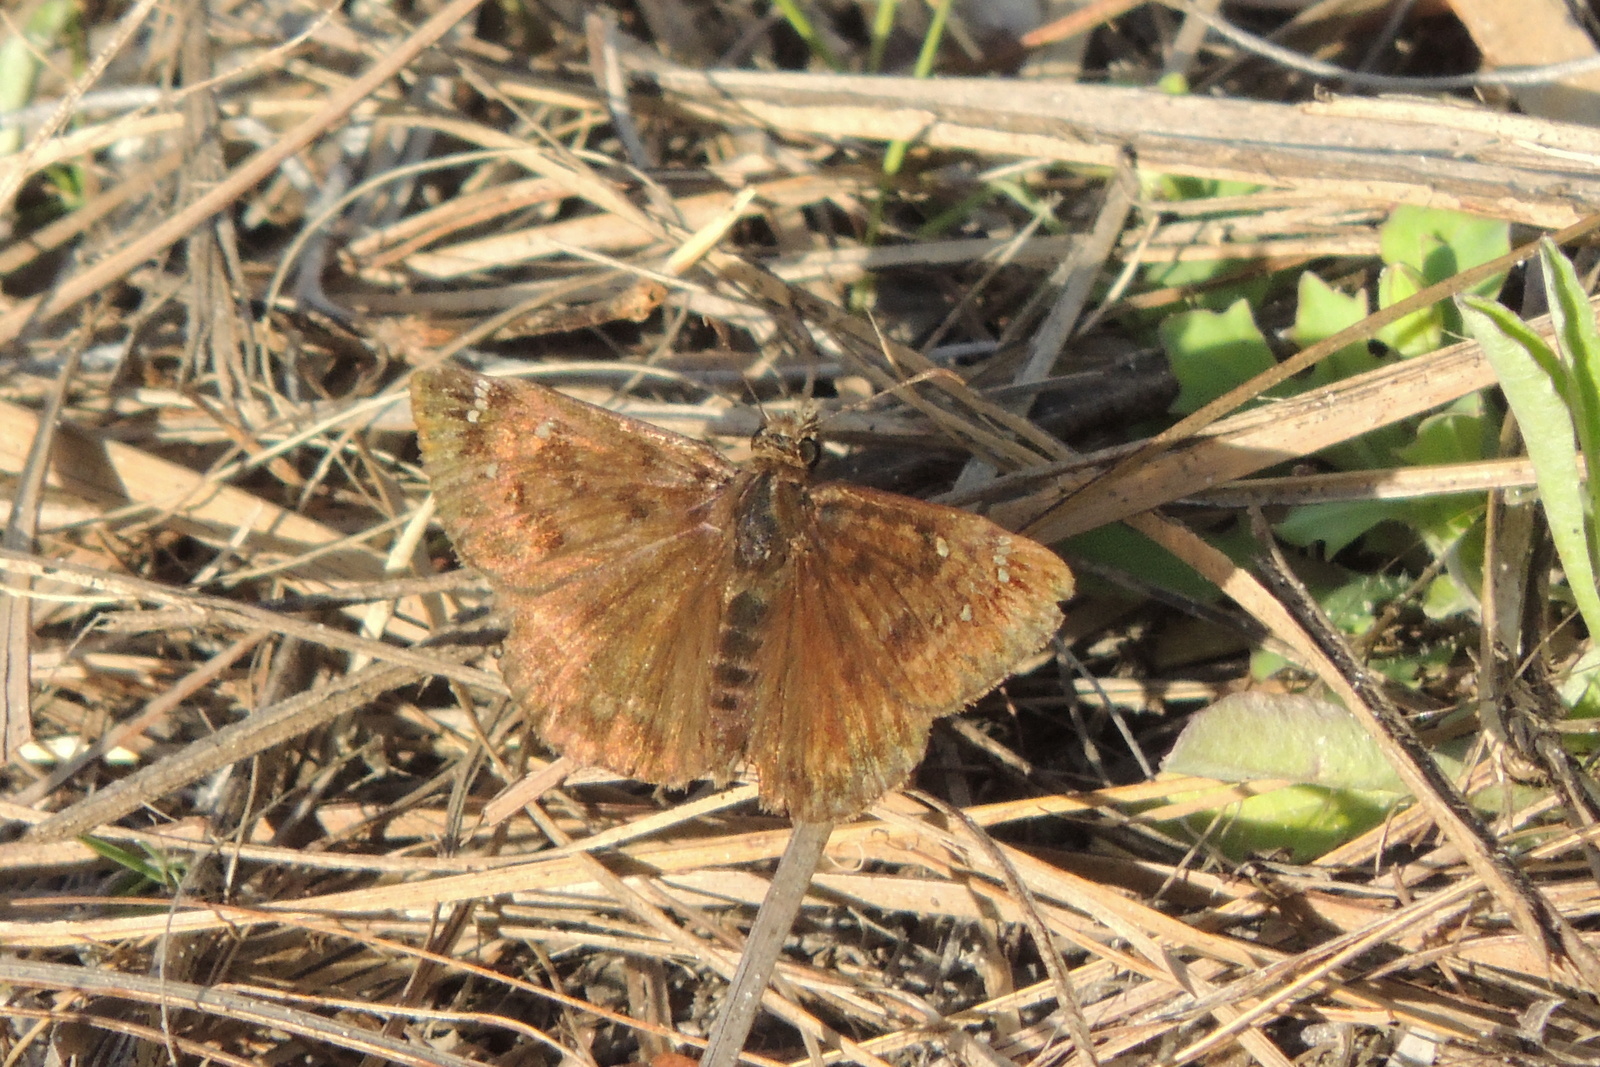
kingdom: Animalia
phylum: Arthropoda
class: Insecta
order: Lepidoptera
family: Hesperiidae
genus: Erynnis
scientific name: Erynnis horatius
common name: Horace's duskywing
